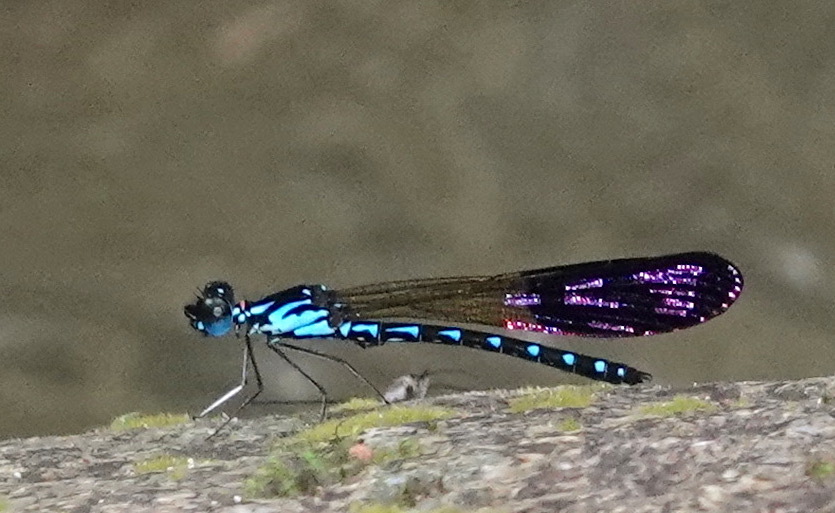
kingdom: Animalia
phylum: Arthropoda
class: Insecta
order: Odonata
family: Chlorocyphidae
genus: Heliocypha
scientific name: Heliocypha perforata
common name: Common blue jewel
